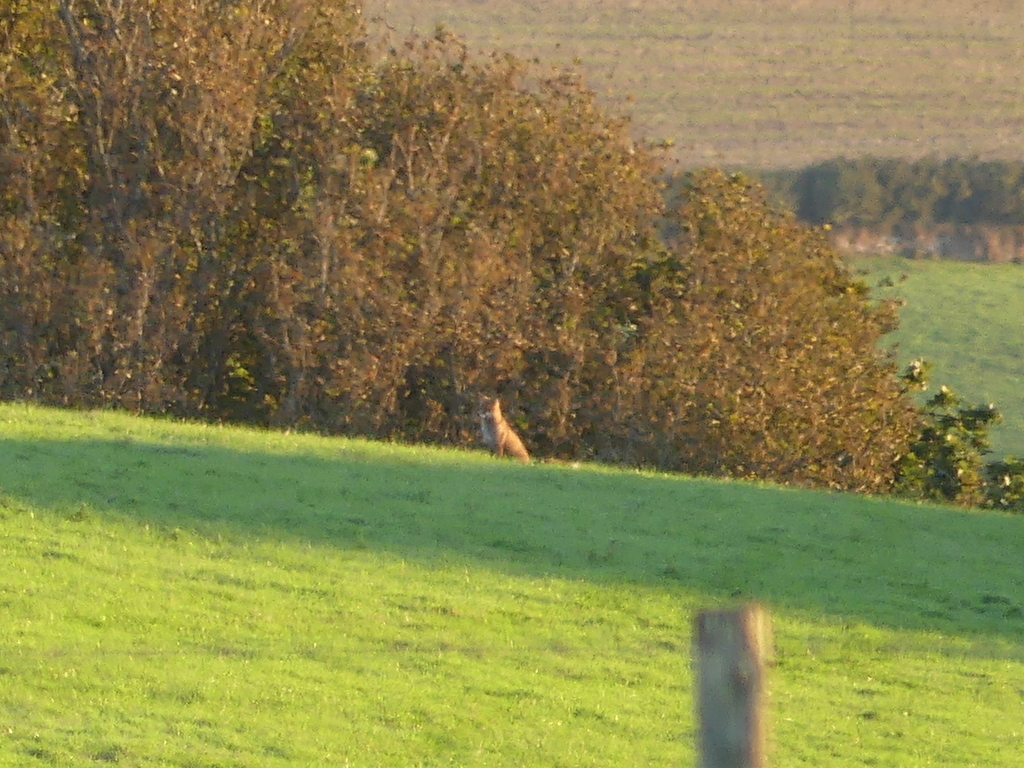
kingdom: Animalia
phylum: Chordata
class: Mammalia
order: Carnivora
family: Canidae
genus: Vulpes
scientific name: Vulpes vulpes
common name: Red fox
